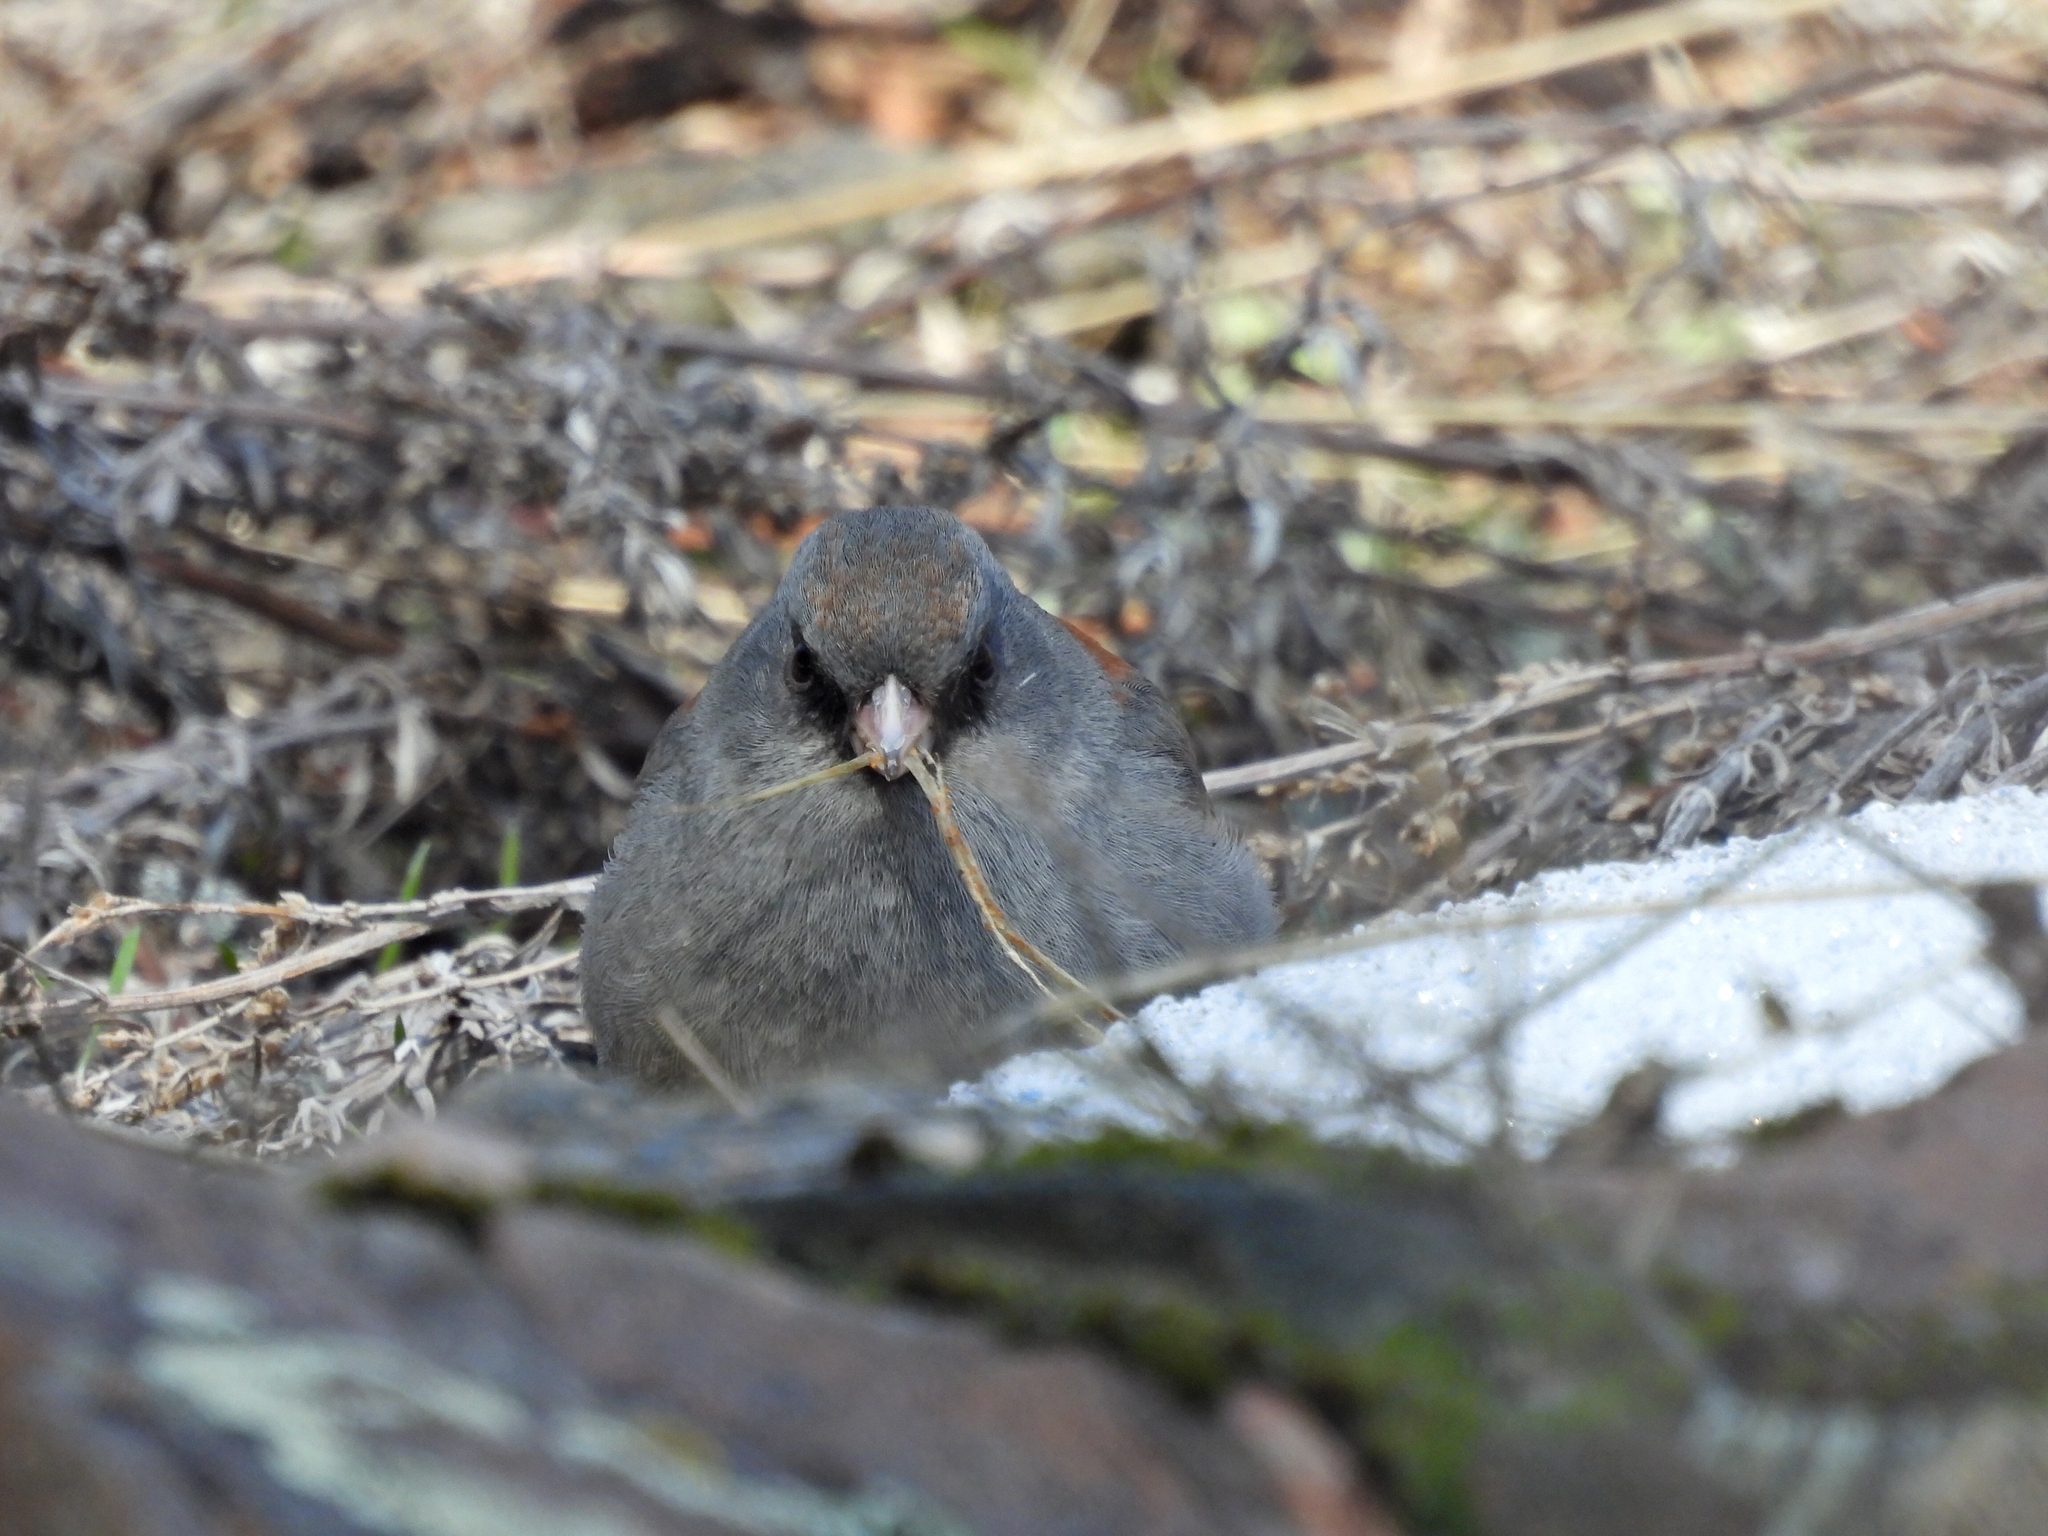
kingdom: Animalia
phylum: Chordata
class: Aves
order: Passeriformes
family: Passerellidae
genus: Junco
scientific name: Junco hyemalis
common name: Dark-eyed junco
